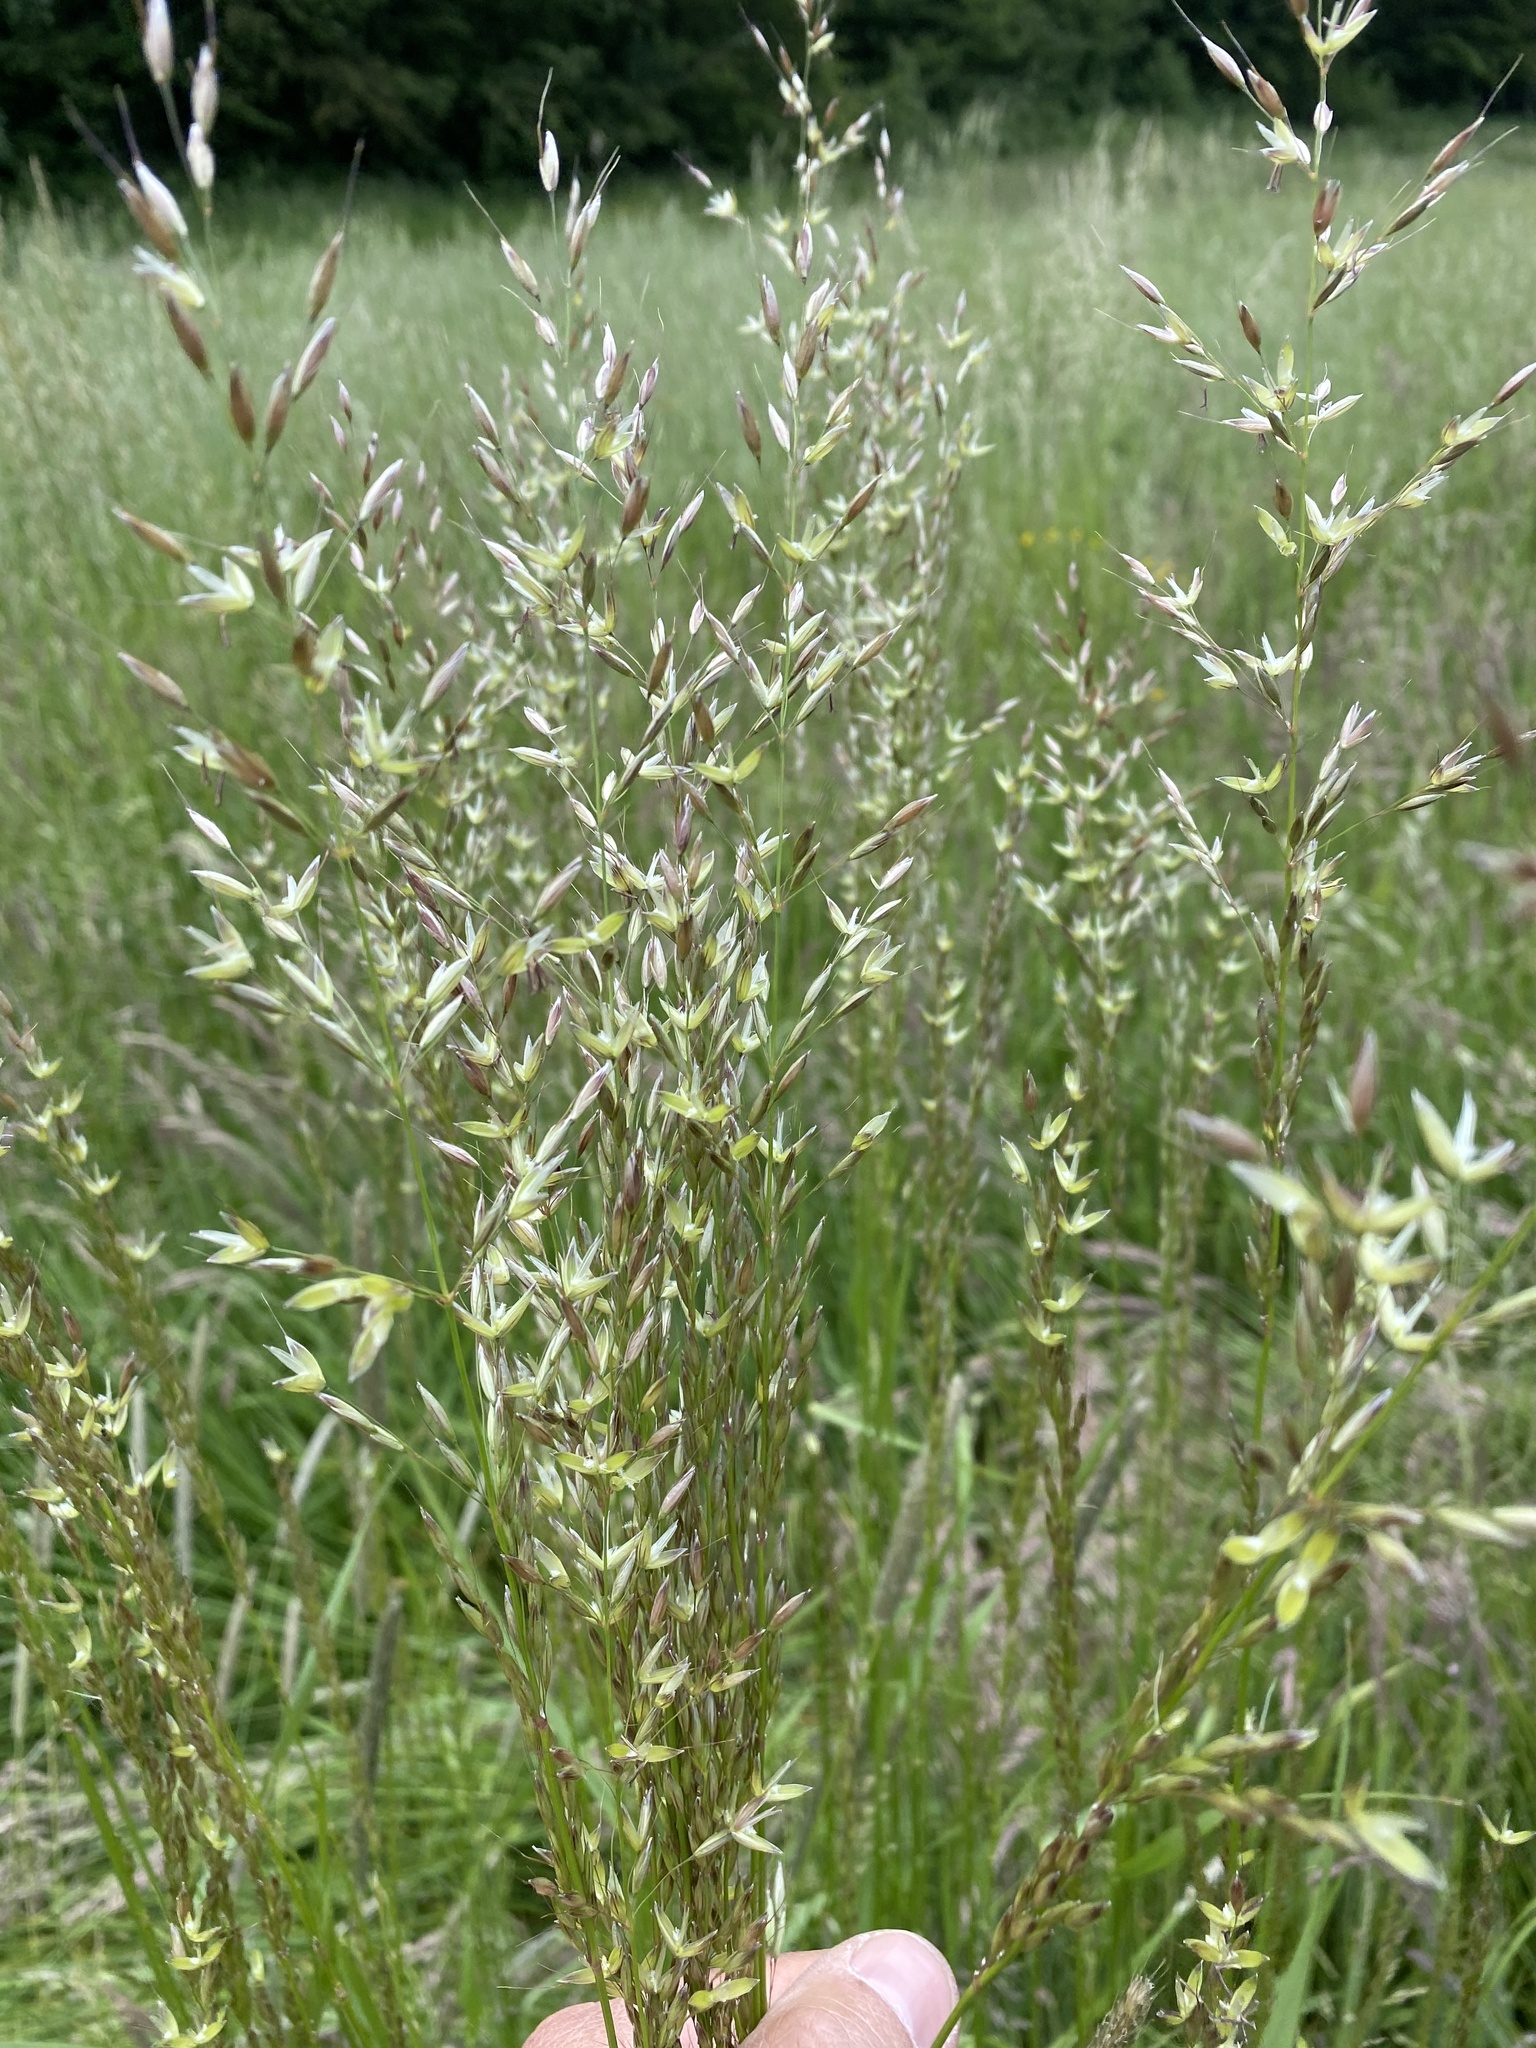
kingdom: Plantae
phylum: Tracheophyta
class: Liliopsida
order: Poales
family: Poaceae
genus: Arrhenatherum
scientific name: Arrhenatherum elatius
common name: Tall oatgrass
